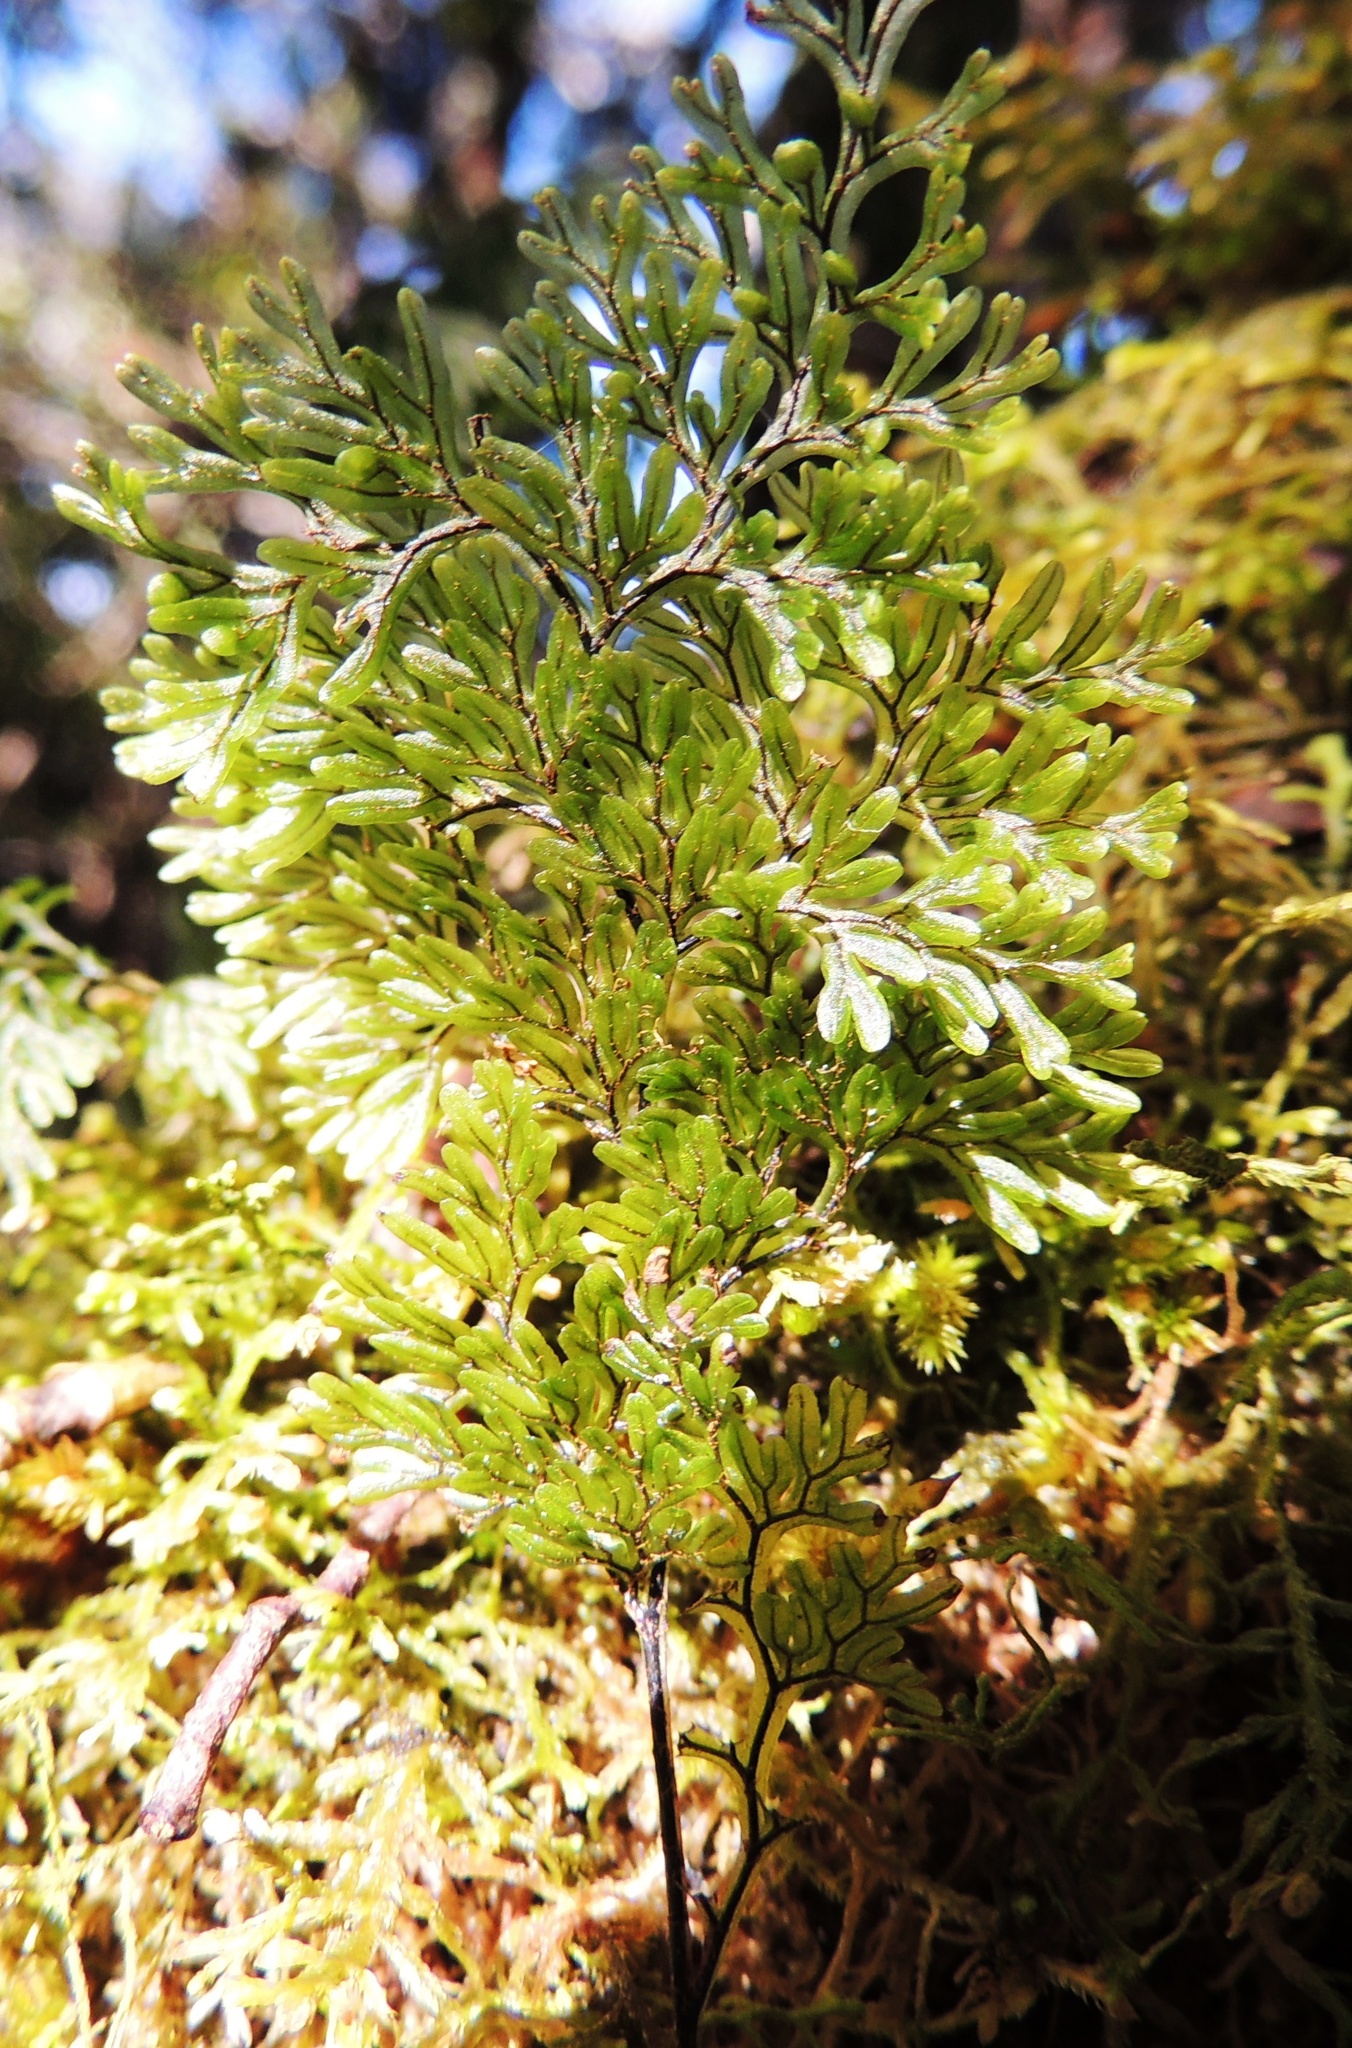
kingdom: Plantae
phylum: Tracheophyta
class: Polypodiopsida
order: Hymenophyllales
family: Hymenophyllaceae
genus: Hymenophyllum
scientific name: Hymenophyllum villosum
